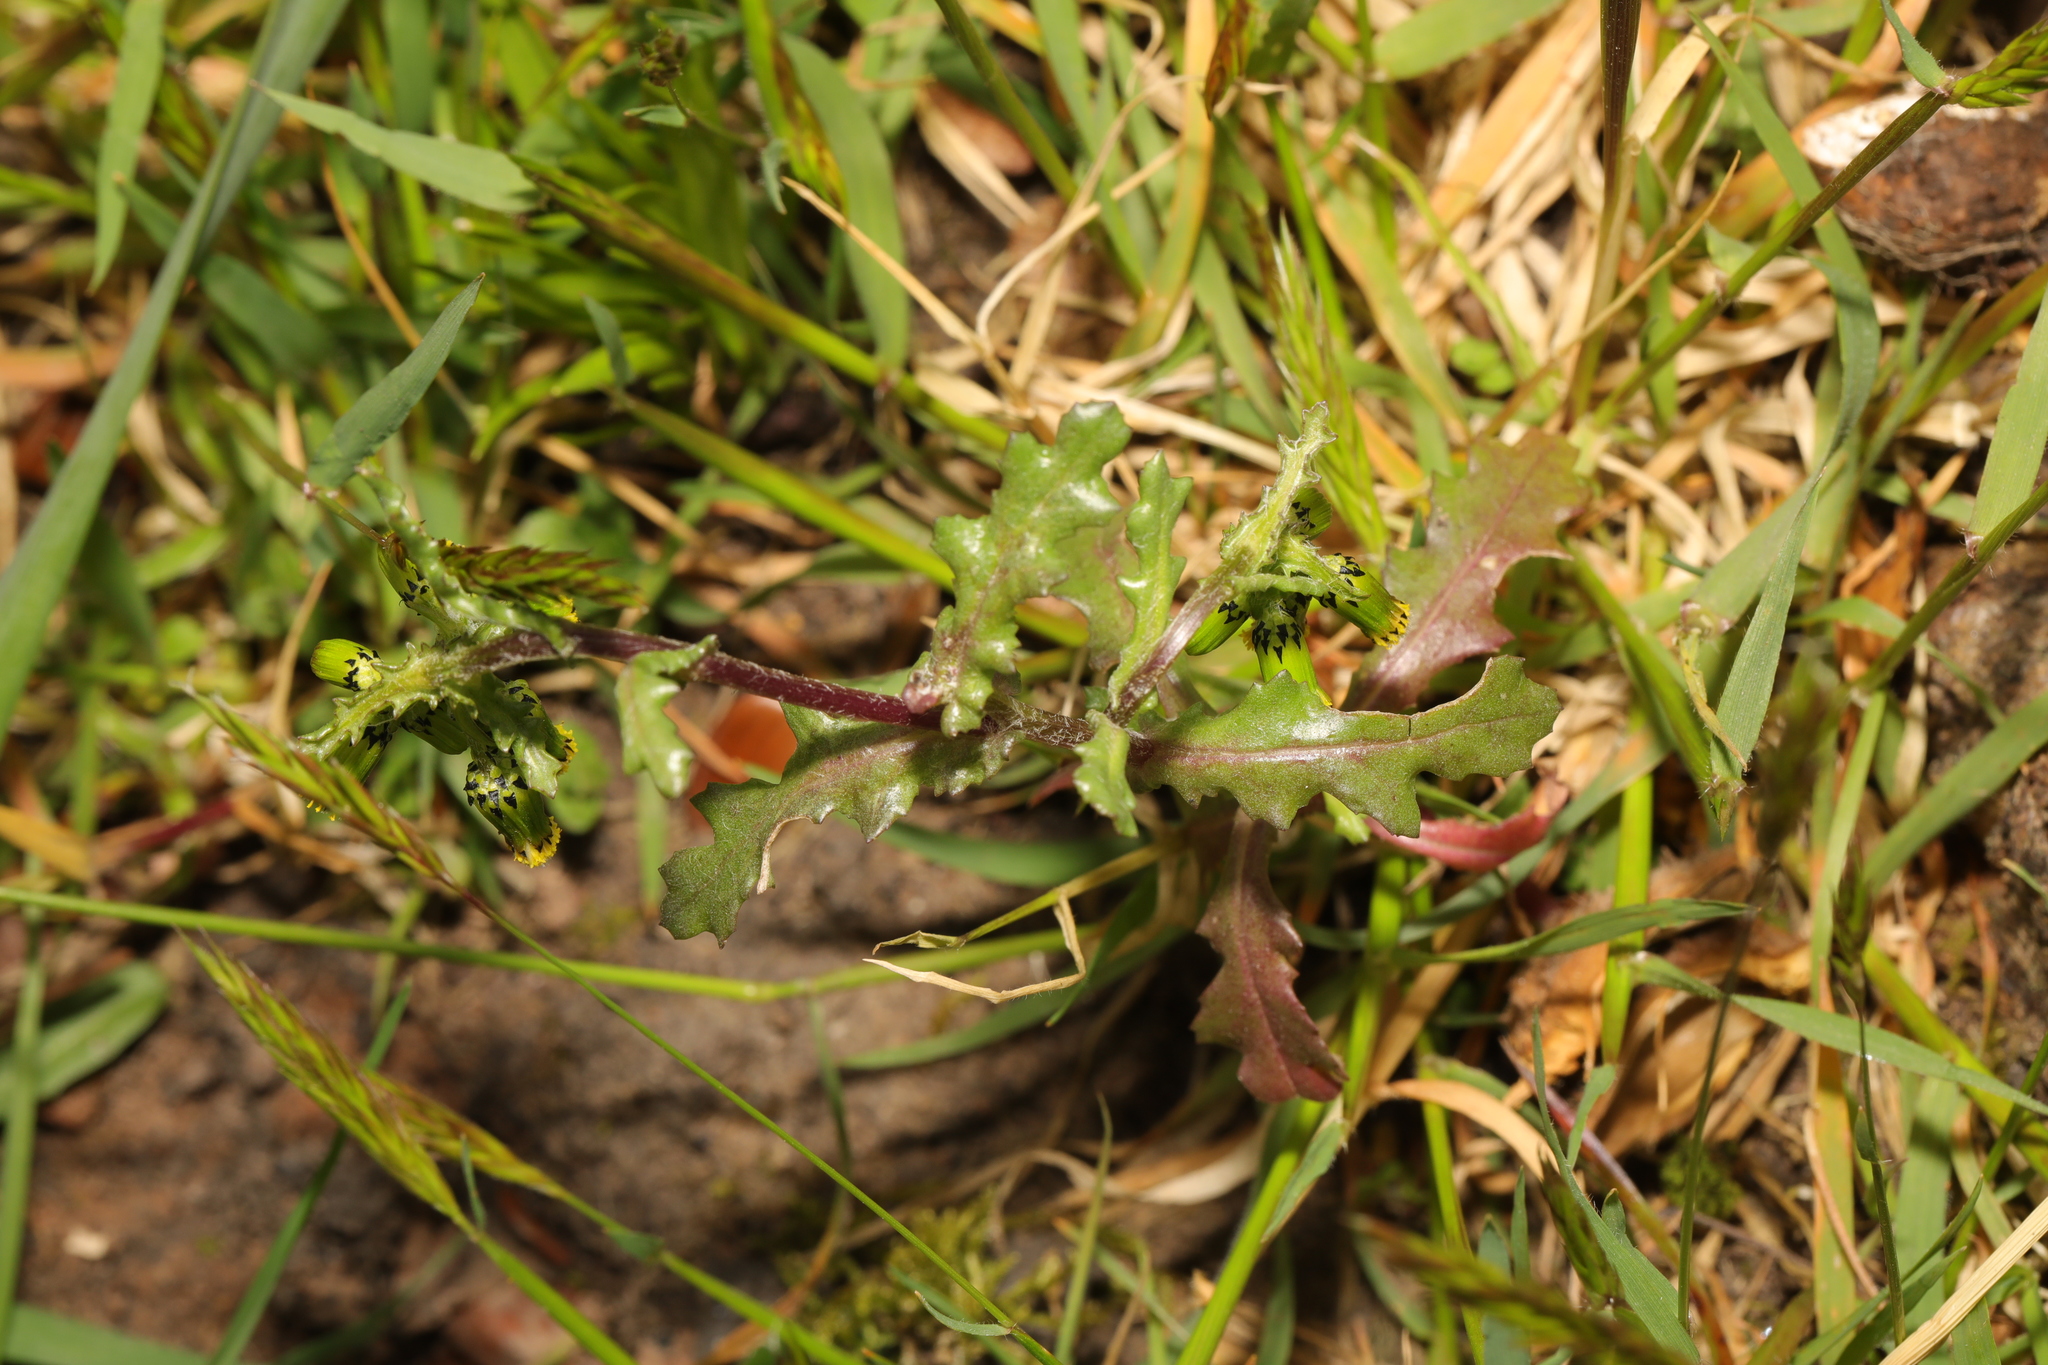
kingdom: Plantae
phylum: Tracheophyta
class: Magnoliopsida
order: Asterales
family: Asteraceae
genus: Senecio
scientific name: Senecio vulgaris
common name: Old-man-in-the-spring
